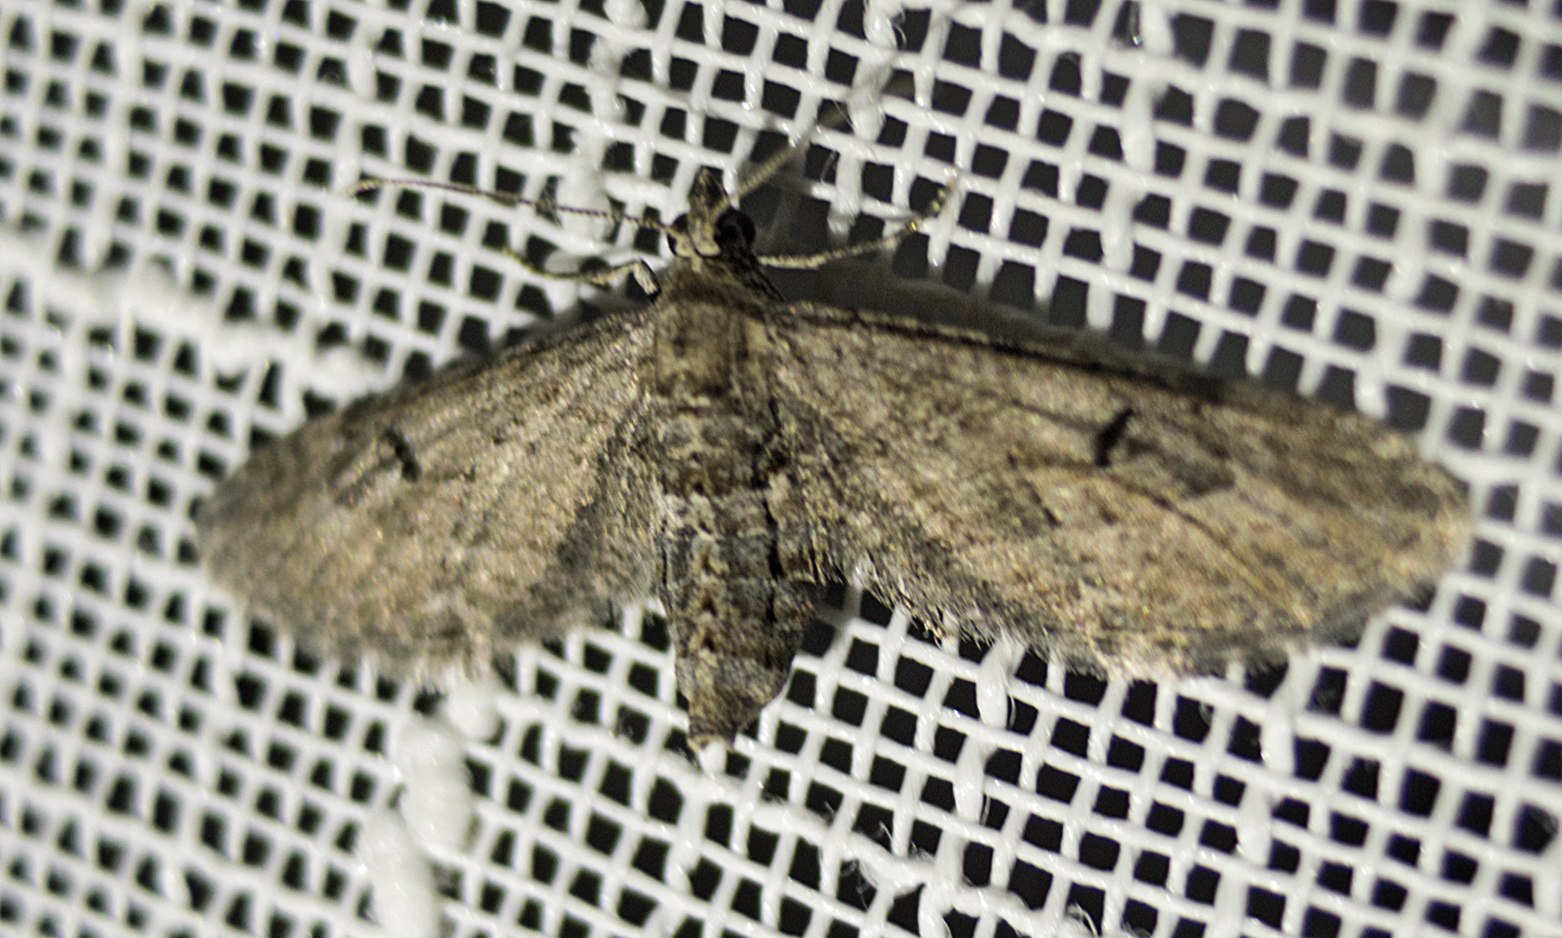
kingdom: Animalia
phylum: Arthropoda
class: Insecta
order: Lepidoptera
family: Geometridae
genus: Eupithecia
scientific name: Eupithecia innotata
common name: Angle-barred pug
